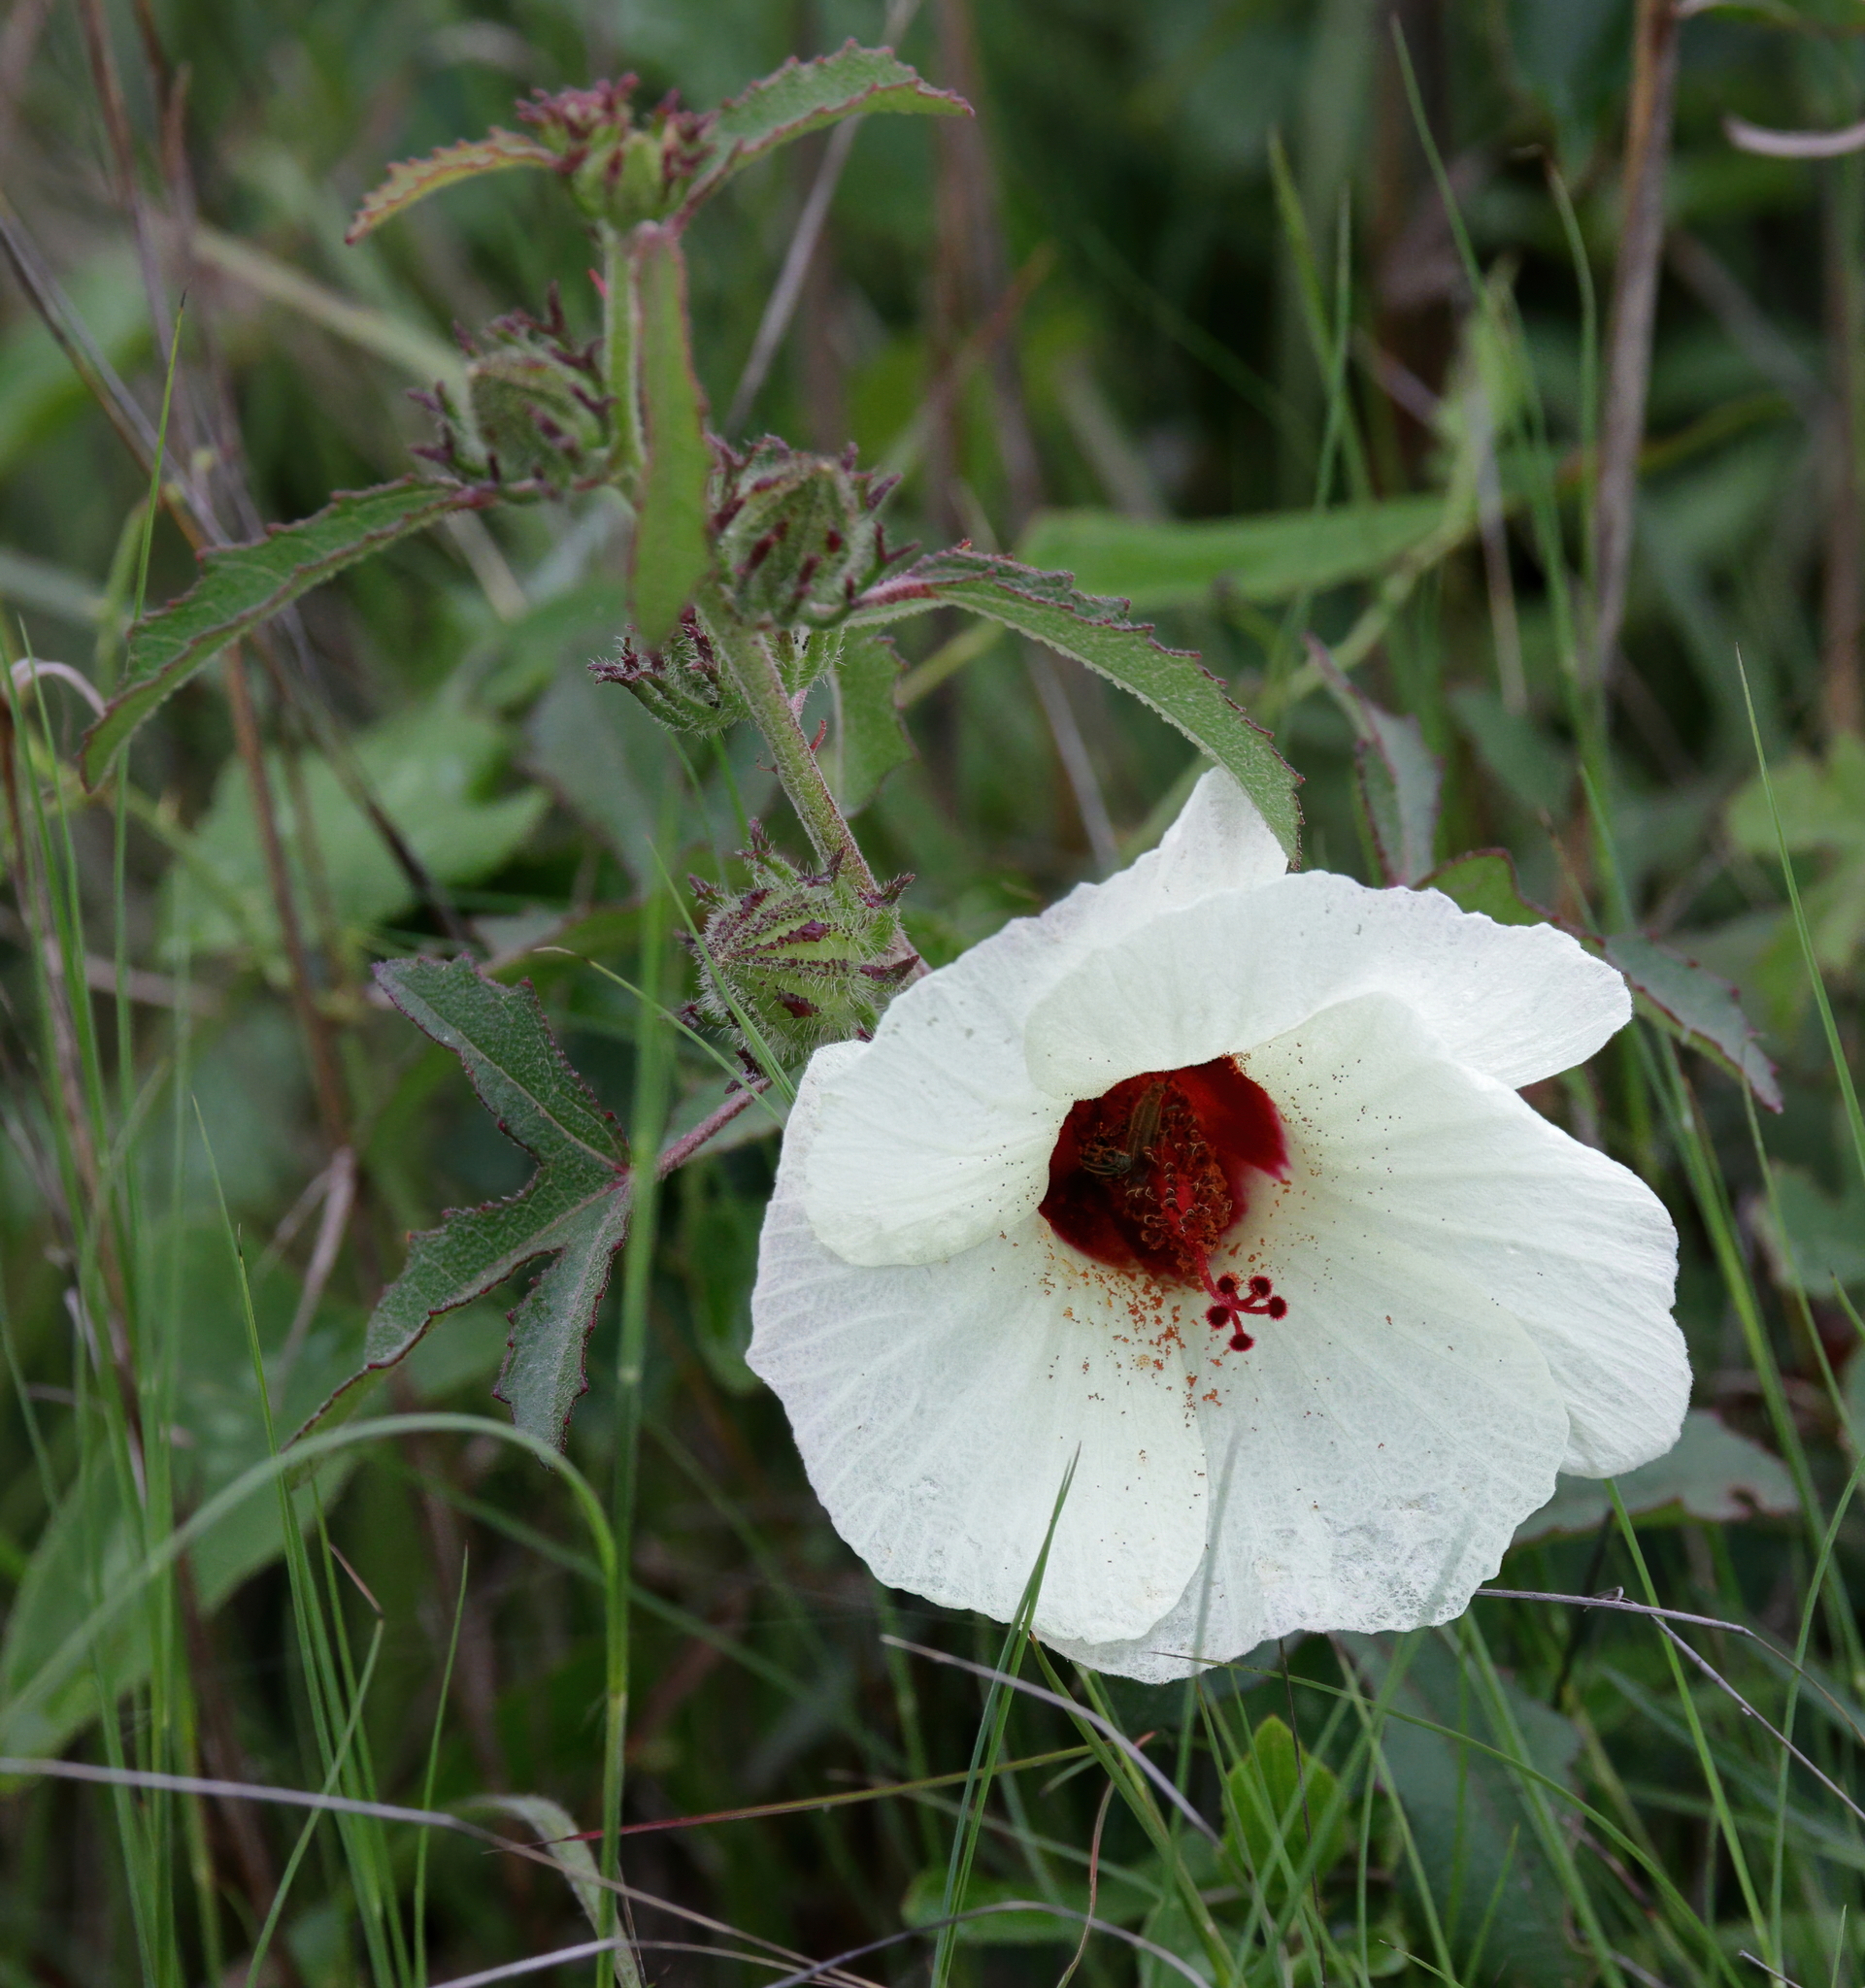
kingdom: Plantae
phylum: Tracheophyta
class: Magnoliopsida
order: Malvales
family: Malvaceae
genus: Hibiscus
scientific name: Hibiscus aculeatus
